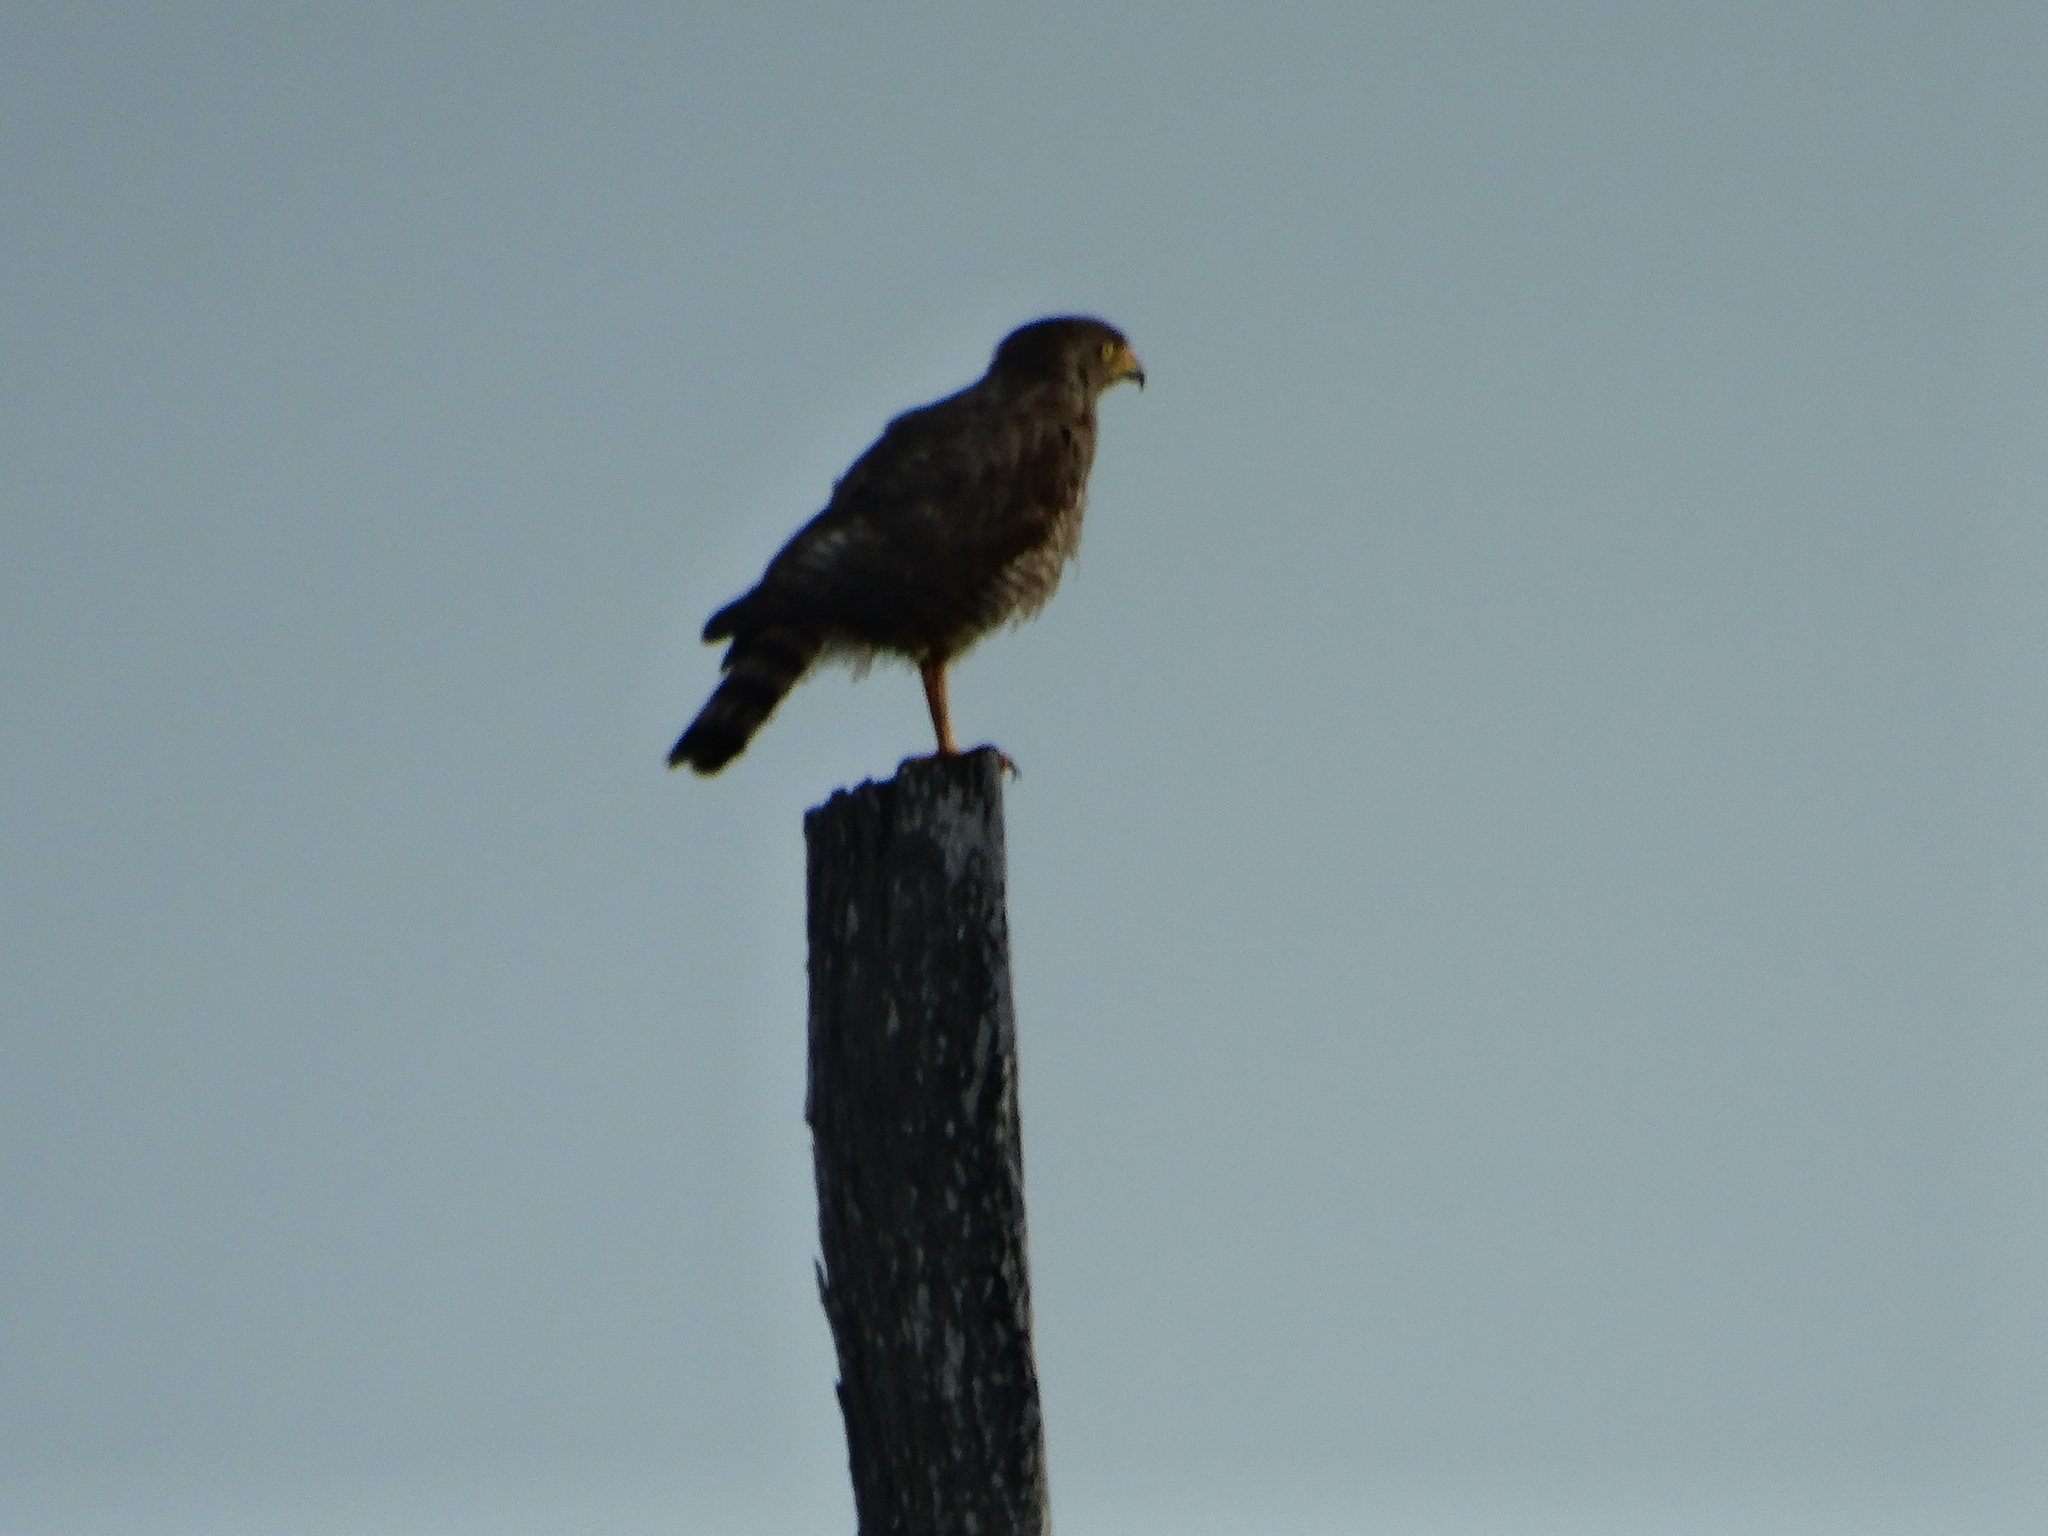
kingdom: Animalia
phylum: Chordata
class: Aves
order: Accipitriformes
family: Accipitridae
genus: Rupornis
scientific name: Rupornis magnirostris
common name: Roadside hawk
